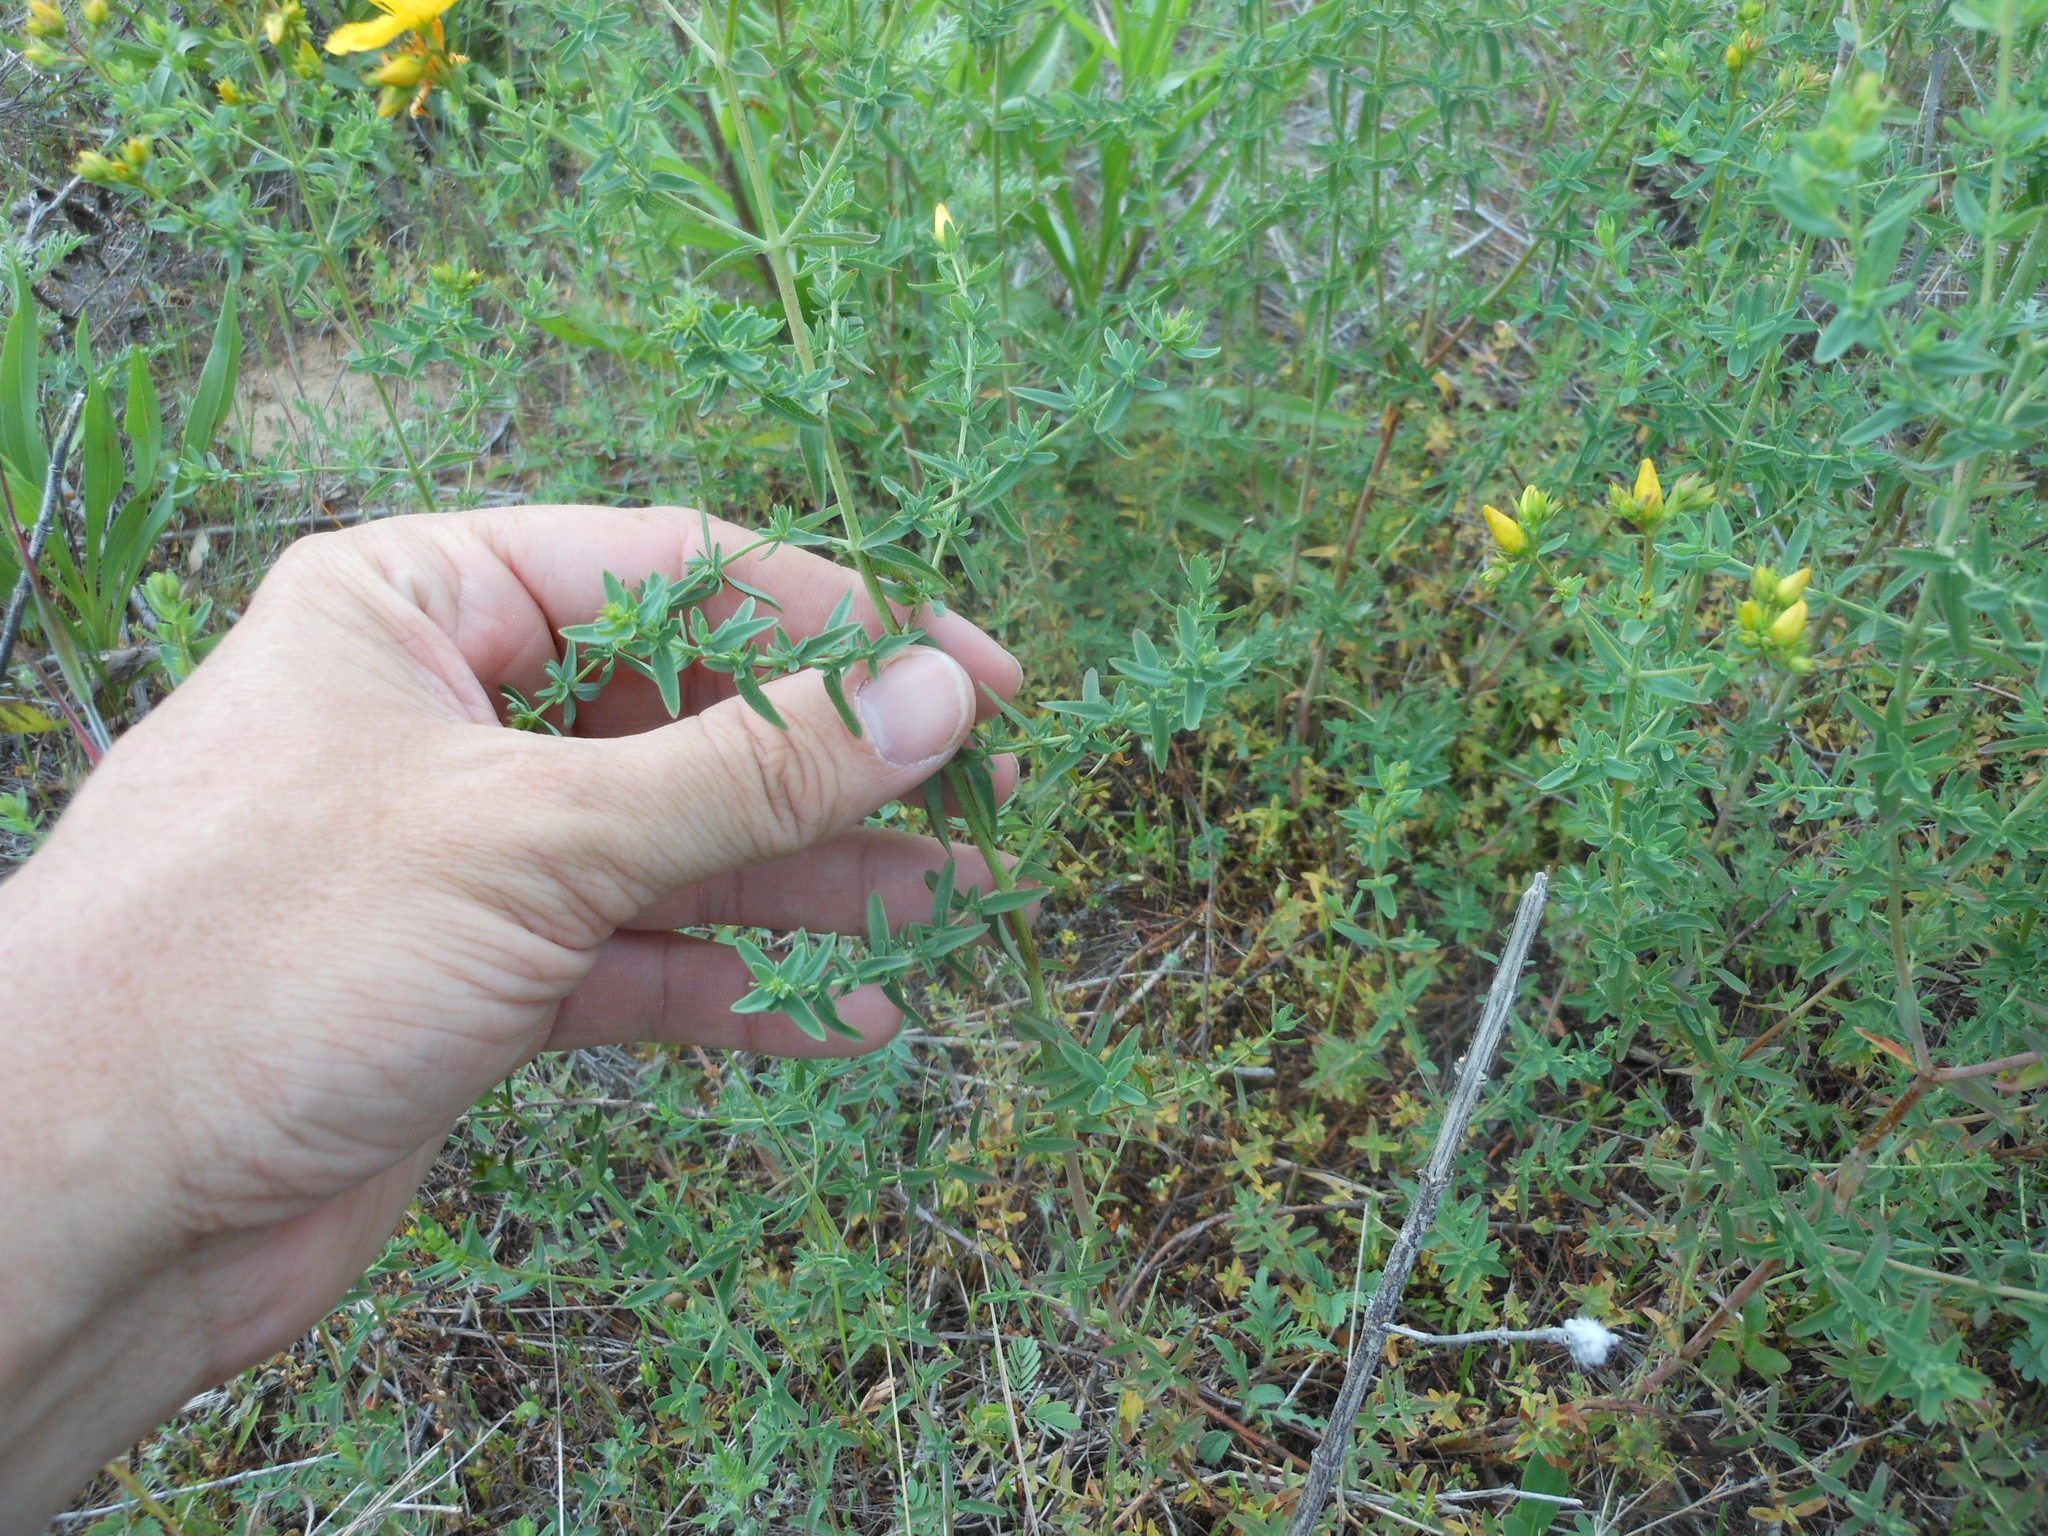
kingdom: Plantae
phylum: Tracheophyta
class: Magnoliopsida
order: Malpighiales
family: Hypericaceae
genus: Hypericum
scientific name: Hypericum perforatum
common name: Common st. johnswort
